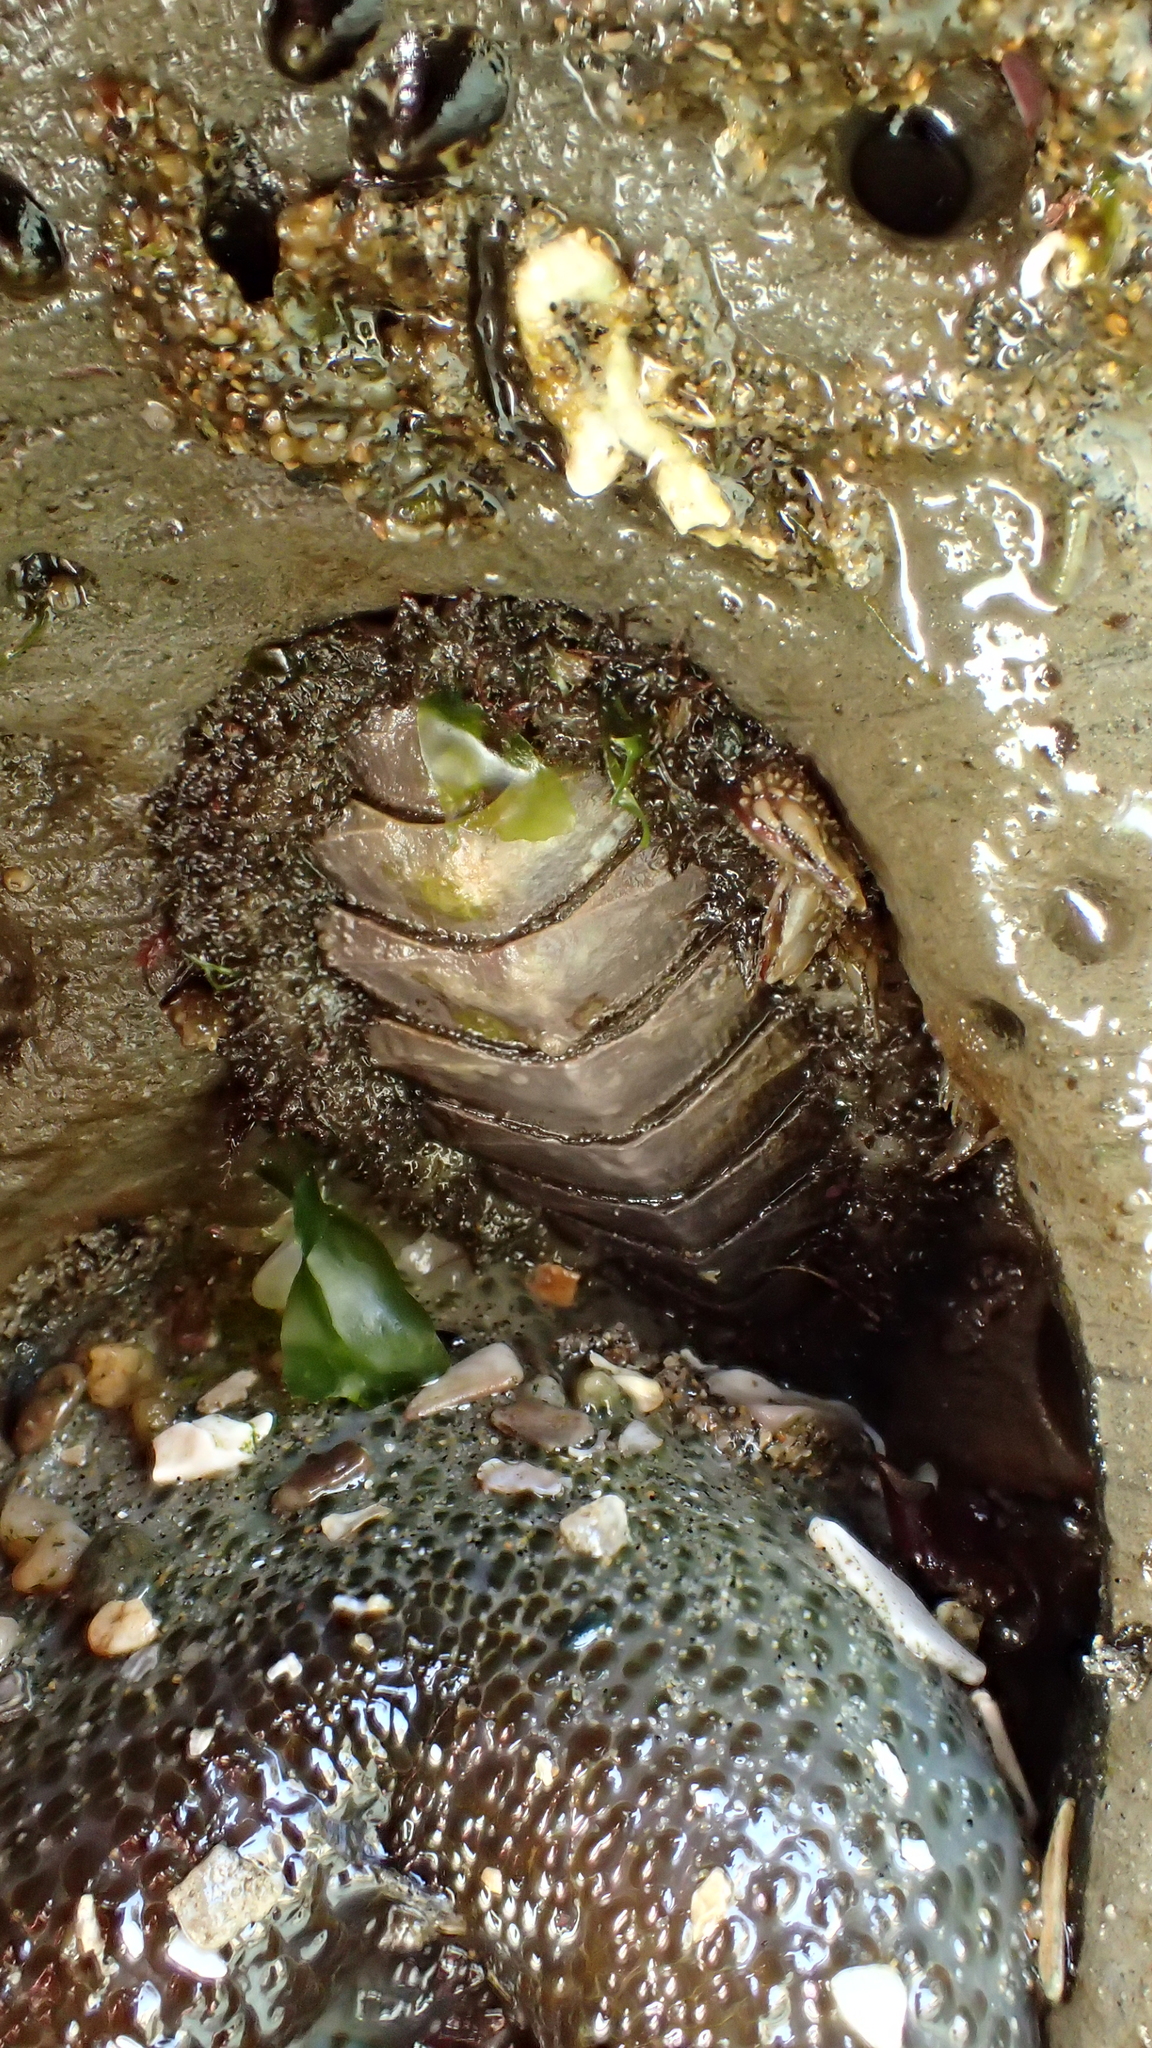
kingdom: Animalia
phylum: Mollusca
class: Polyplacophora
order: Chitonida
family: Mopaliidae
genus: Mopalia
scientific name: Mopalia muscosa
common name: Mossy chiton
